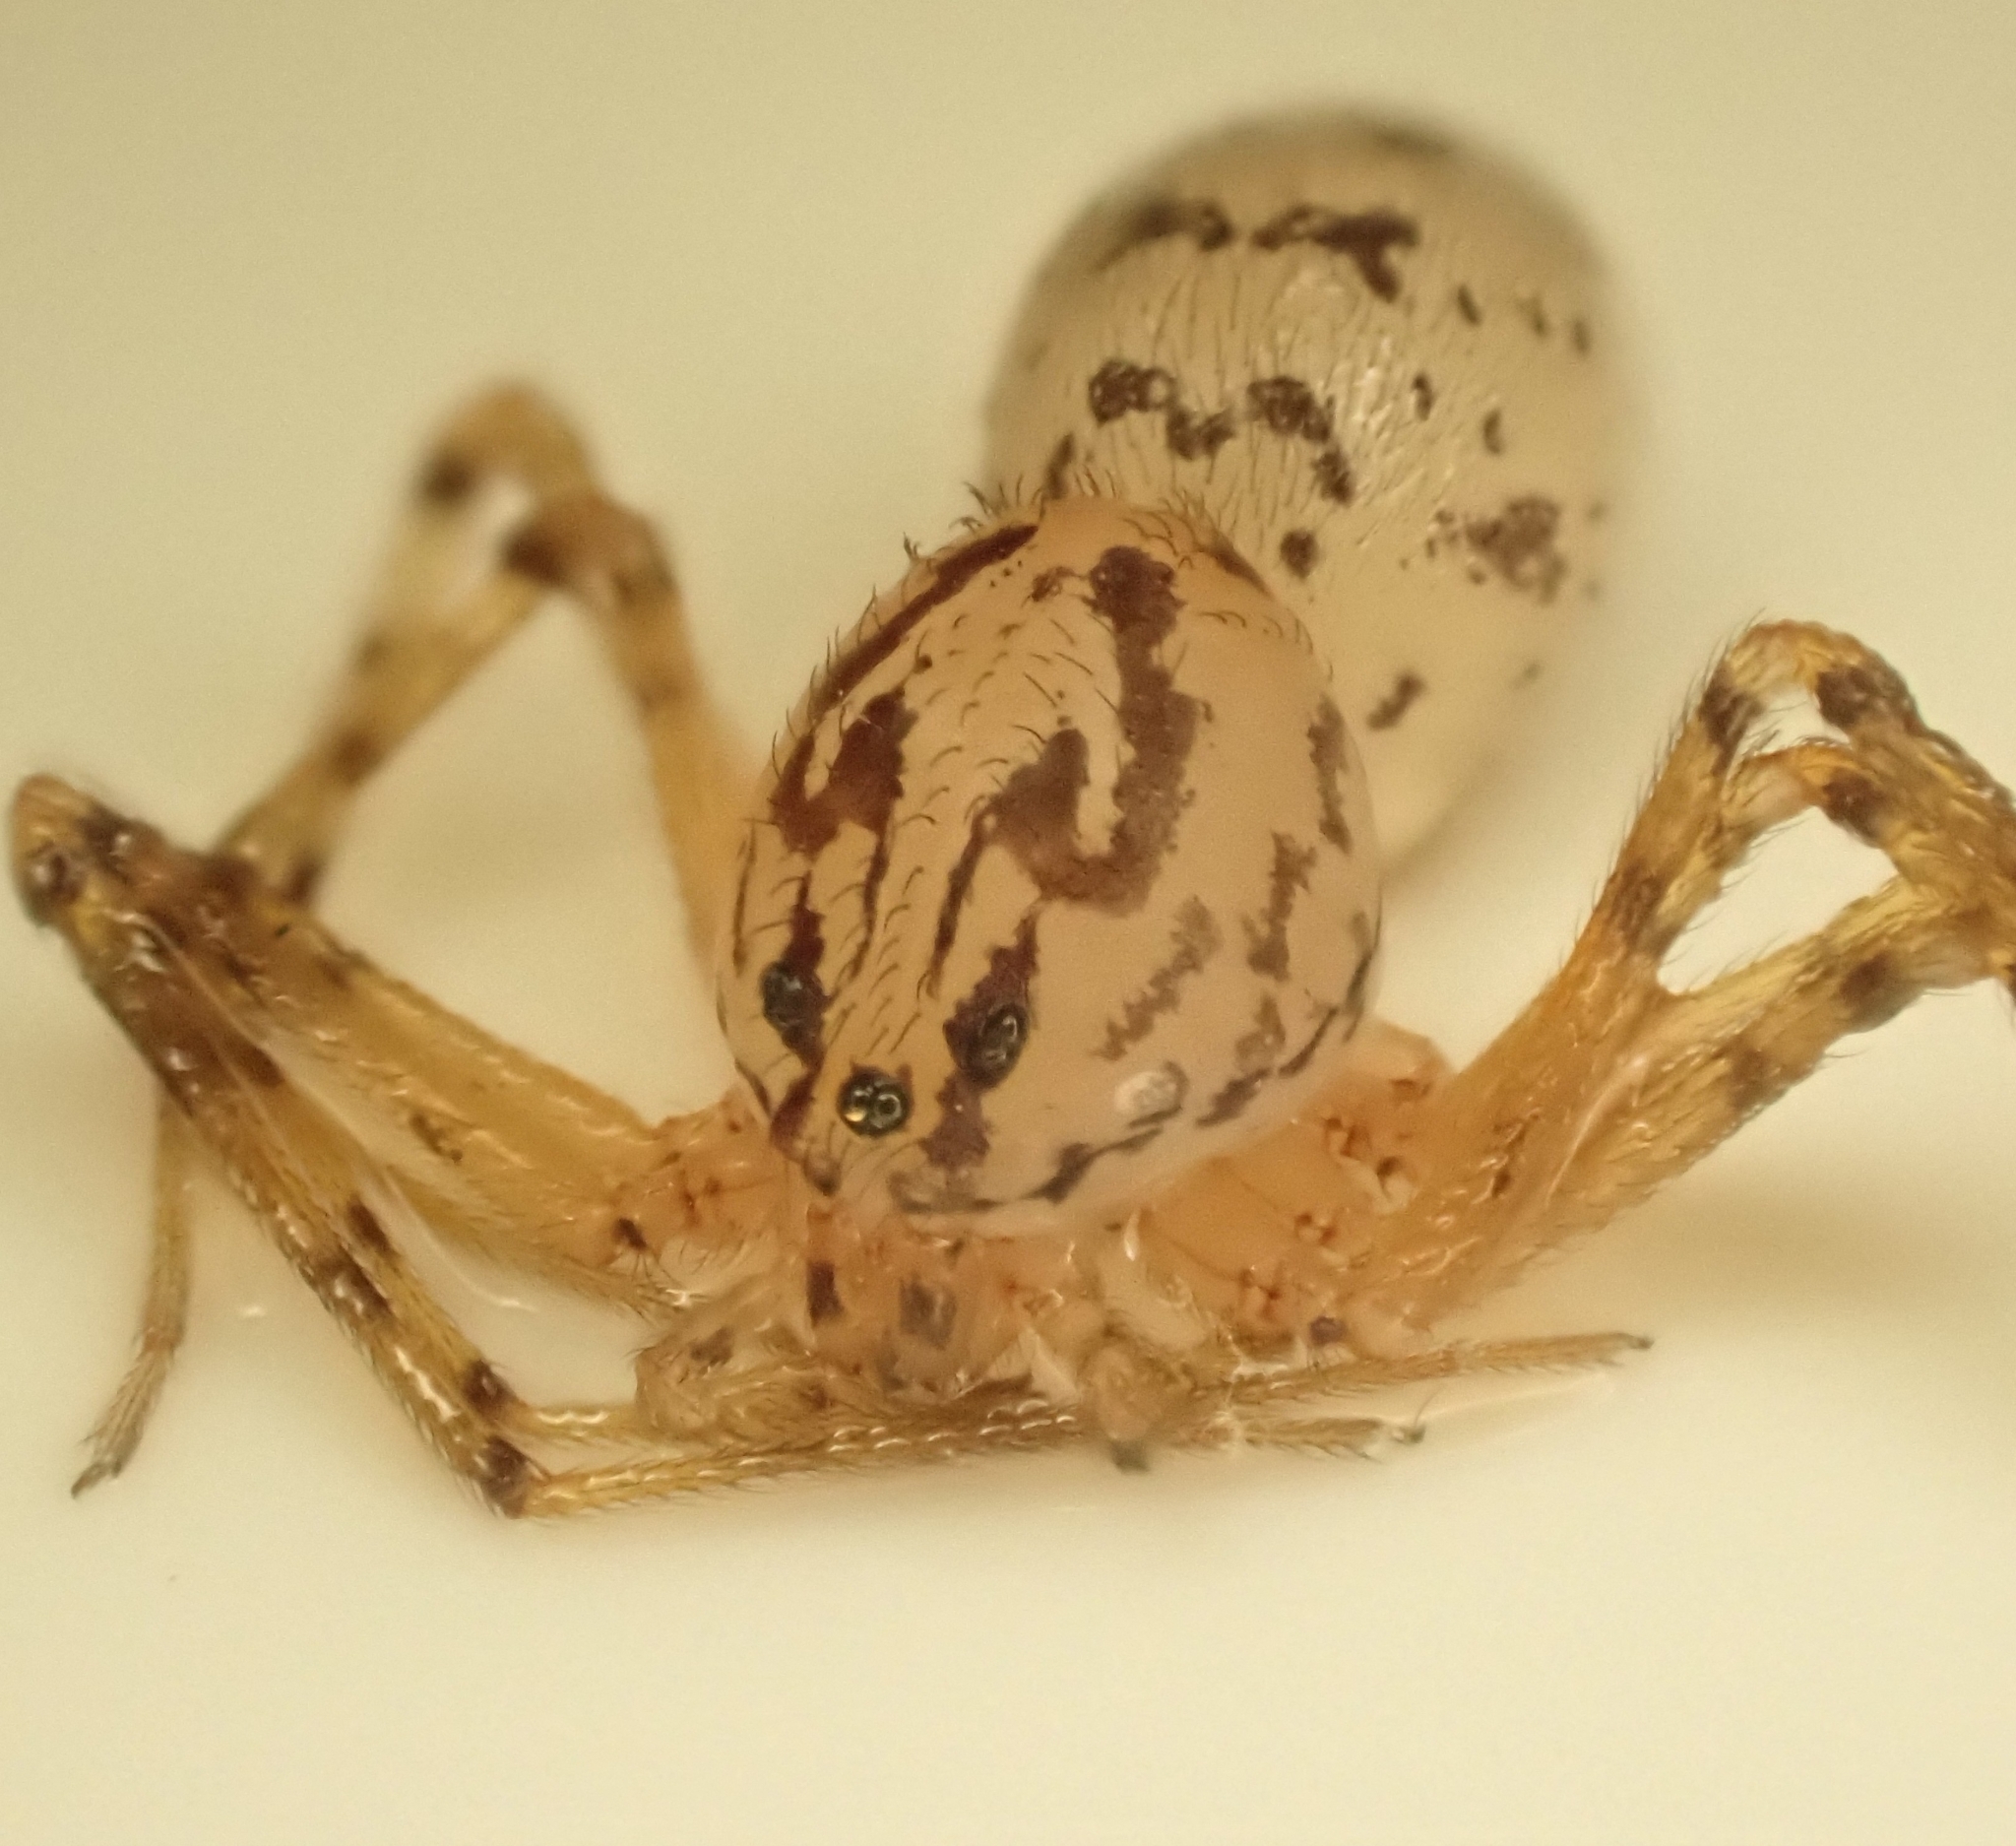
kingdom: Animalia
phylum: Arthropoda
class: Arachnida
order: Araneae
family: Scytodidae
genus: Scytodes
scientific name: Scytodes thoracica
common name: Spitting spider
